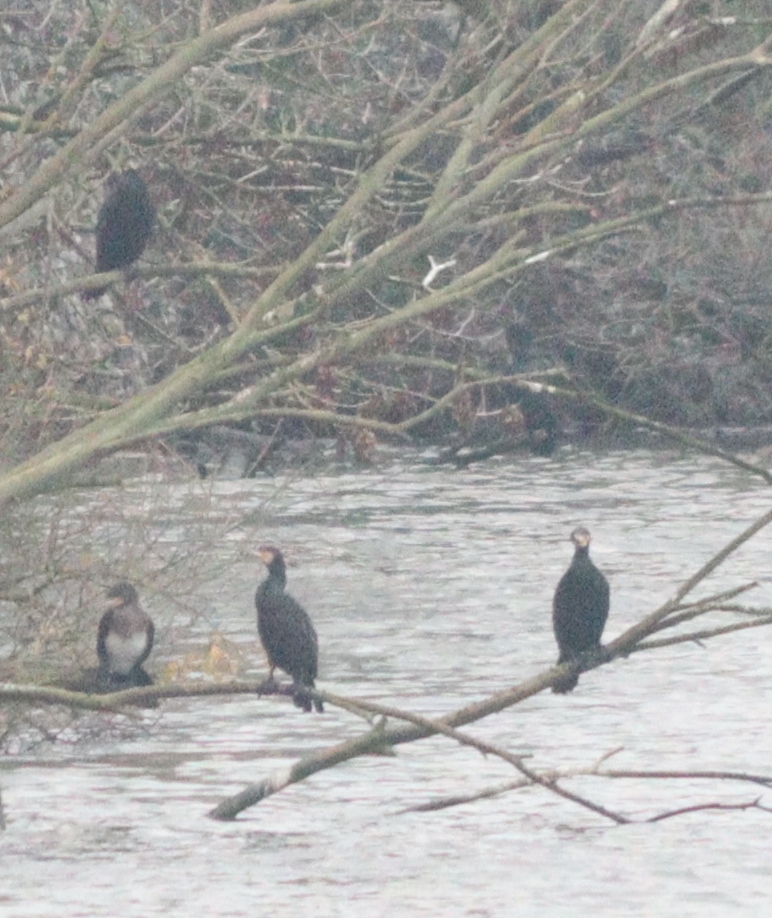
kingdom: Animalia
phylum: Chordata
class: Aves
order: Suliformes
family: Phalacrocoracidae
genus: Phalacrocorax
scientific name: Phalacrocorax carbo
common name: Great cormorant
